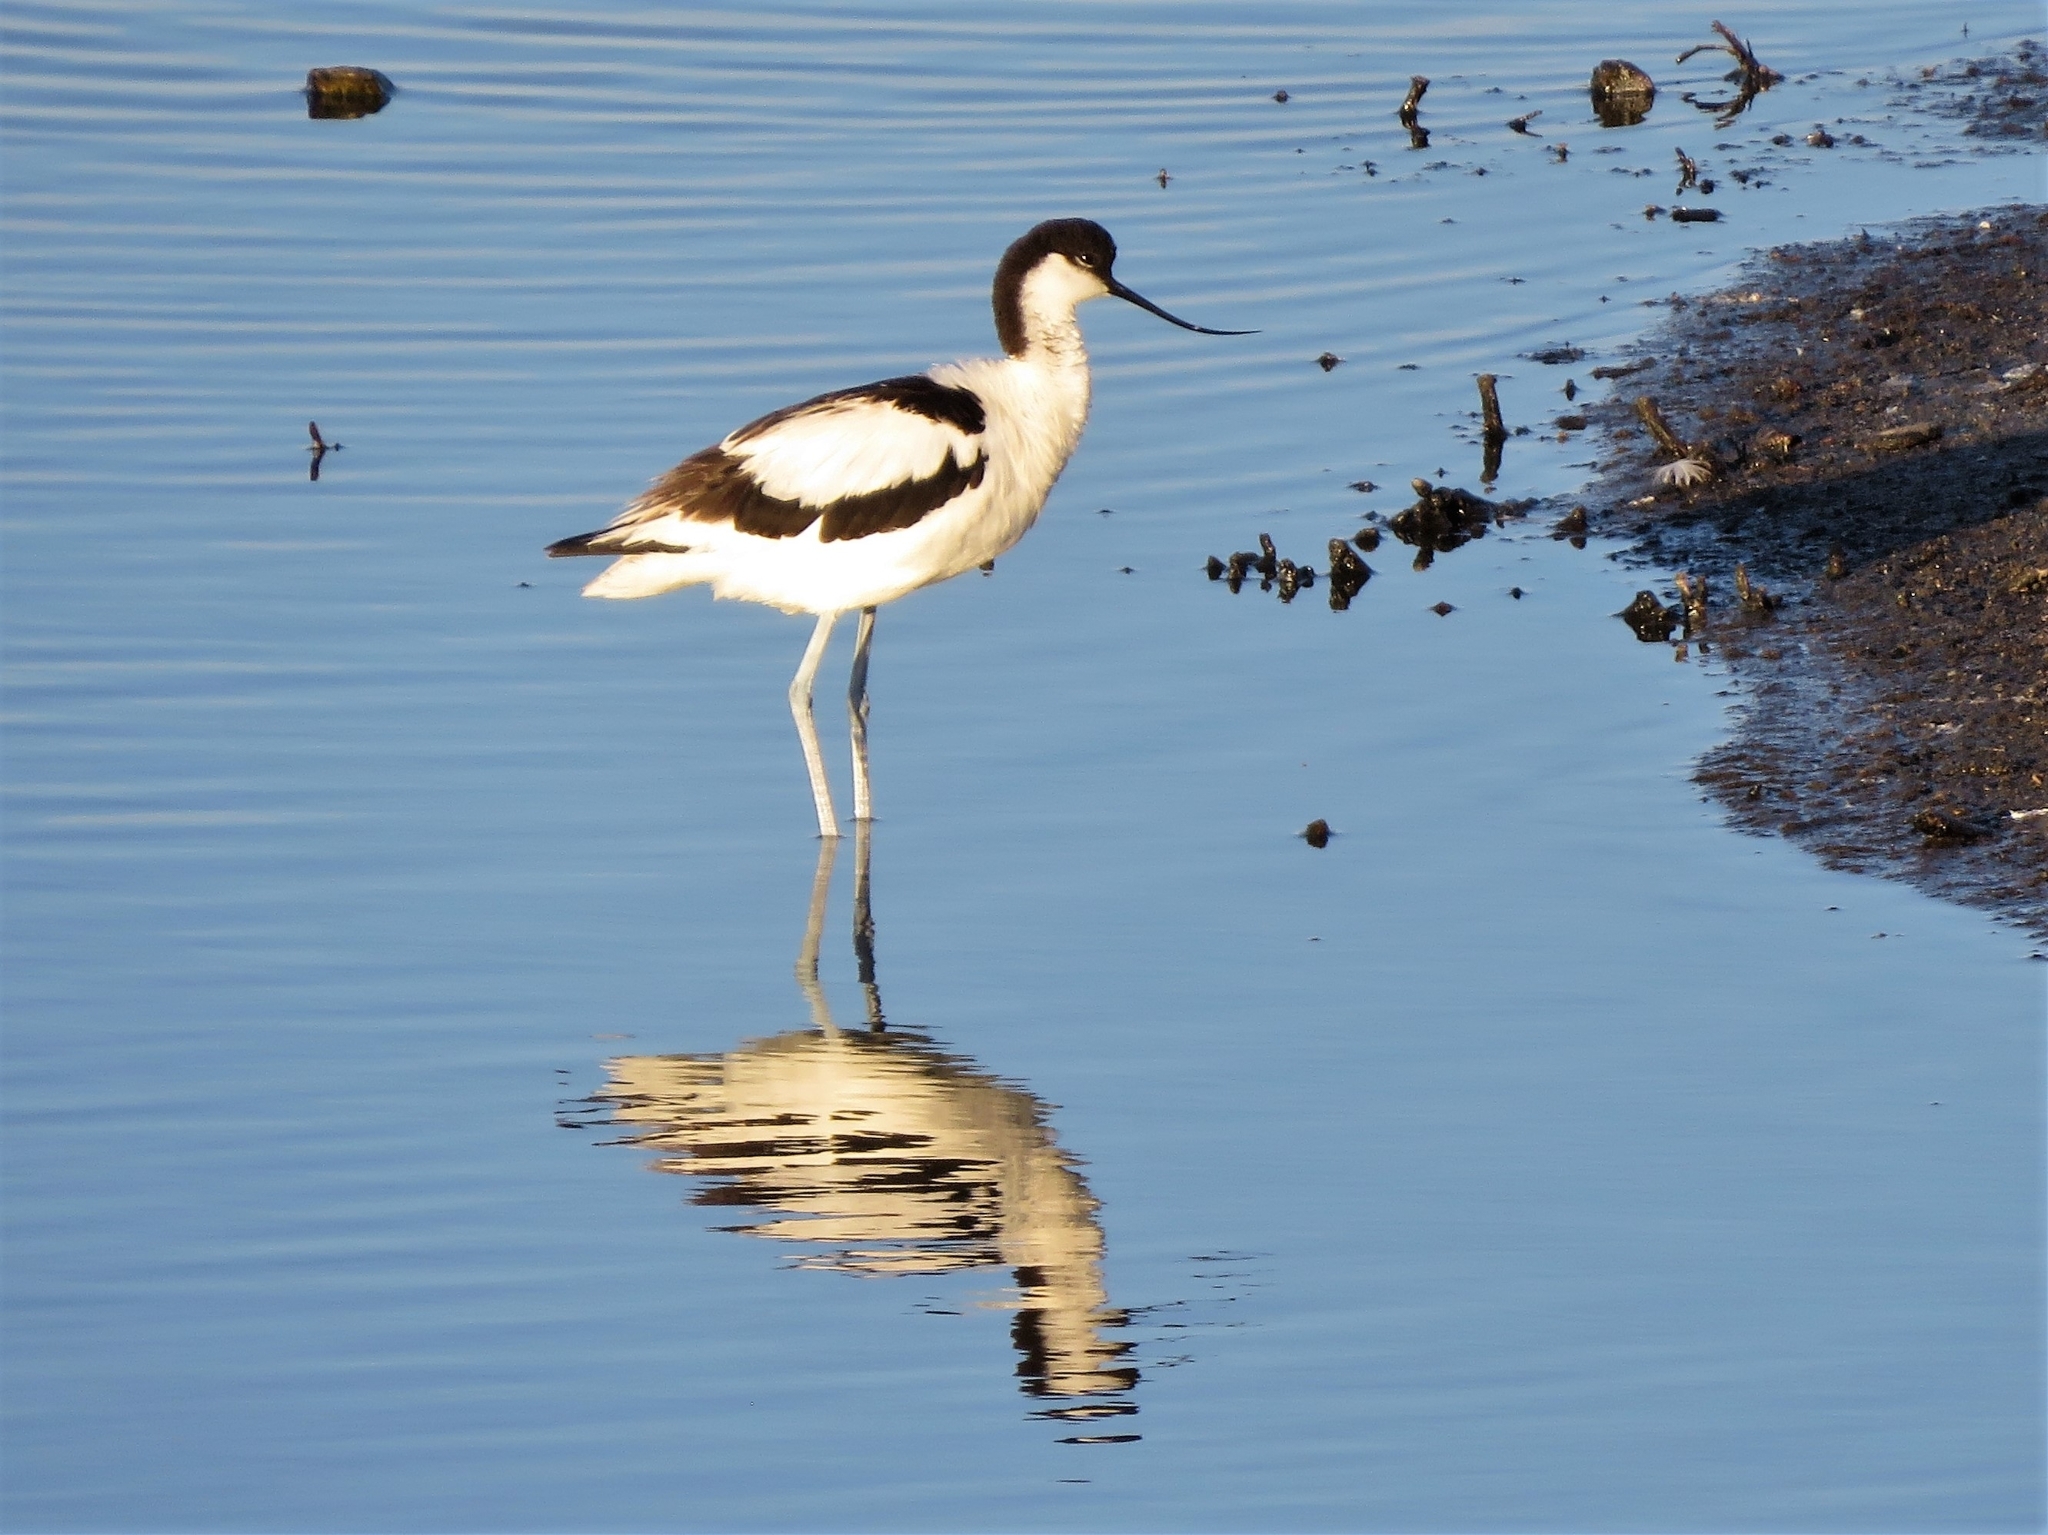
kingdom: Animalia
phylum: Chordata
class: Aves
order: Charadriiformes
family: Recurvirostridae
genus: Recurvirostra
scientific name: Recurvirostra avosetta
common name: Pied avocet
